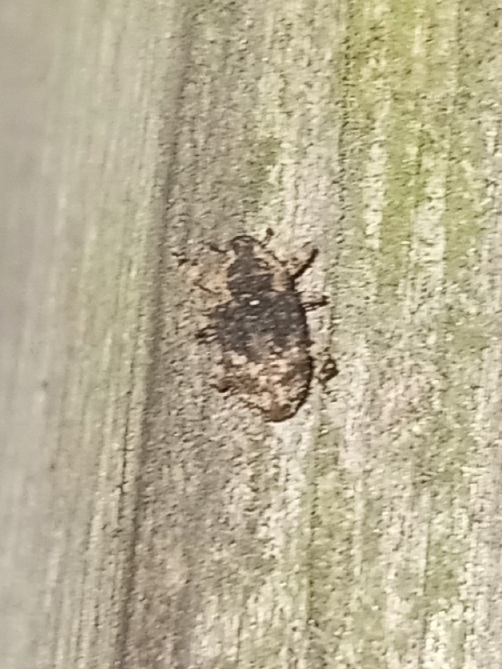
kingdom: Animalia
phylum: Arthropoda
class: Insecta
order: Coleoptera
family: Curculionidae
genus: Cophes
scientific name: Cophes fallax
